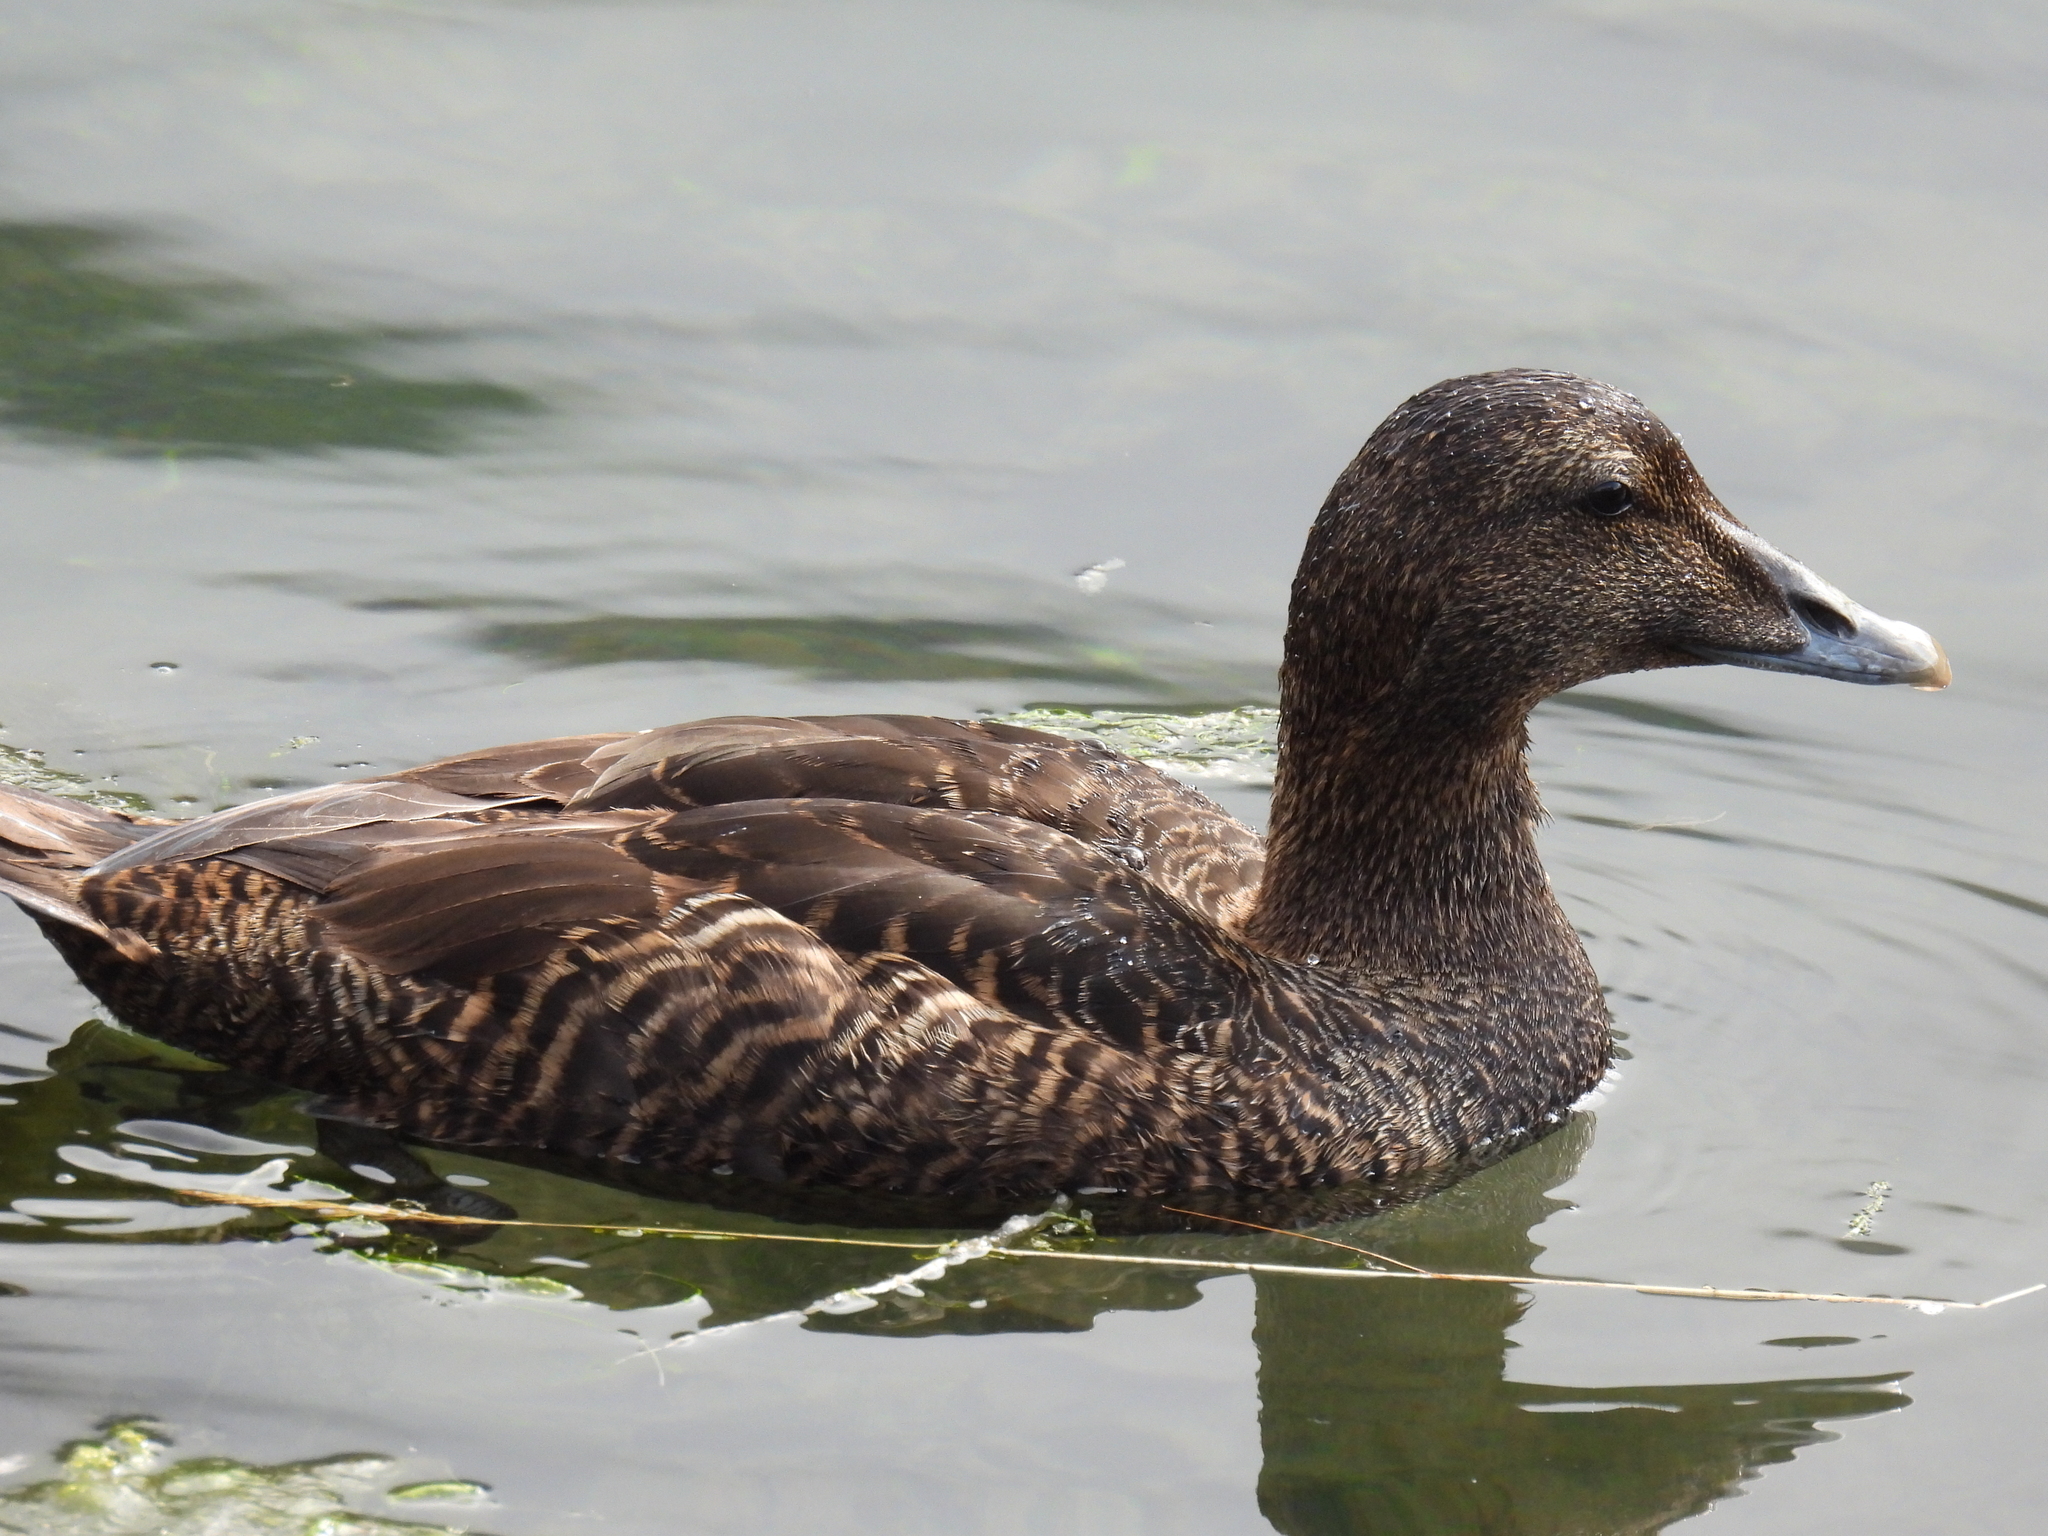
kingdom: Animalia
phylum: Chordata
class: Aves
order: Anseriformes
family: Anatidae
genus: Somateria
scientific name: Somateria mollissima
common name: Common eider
